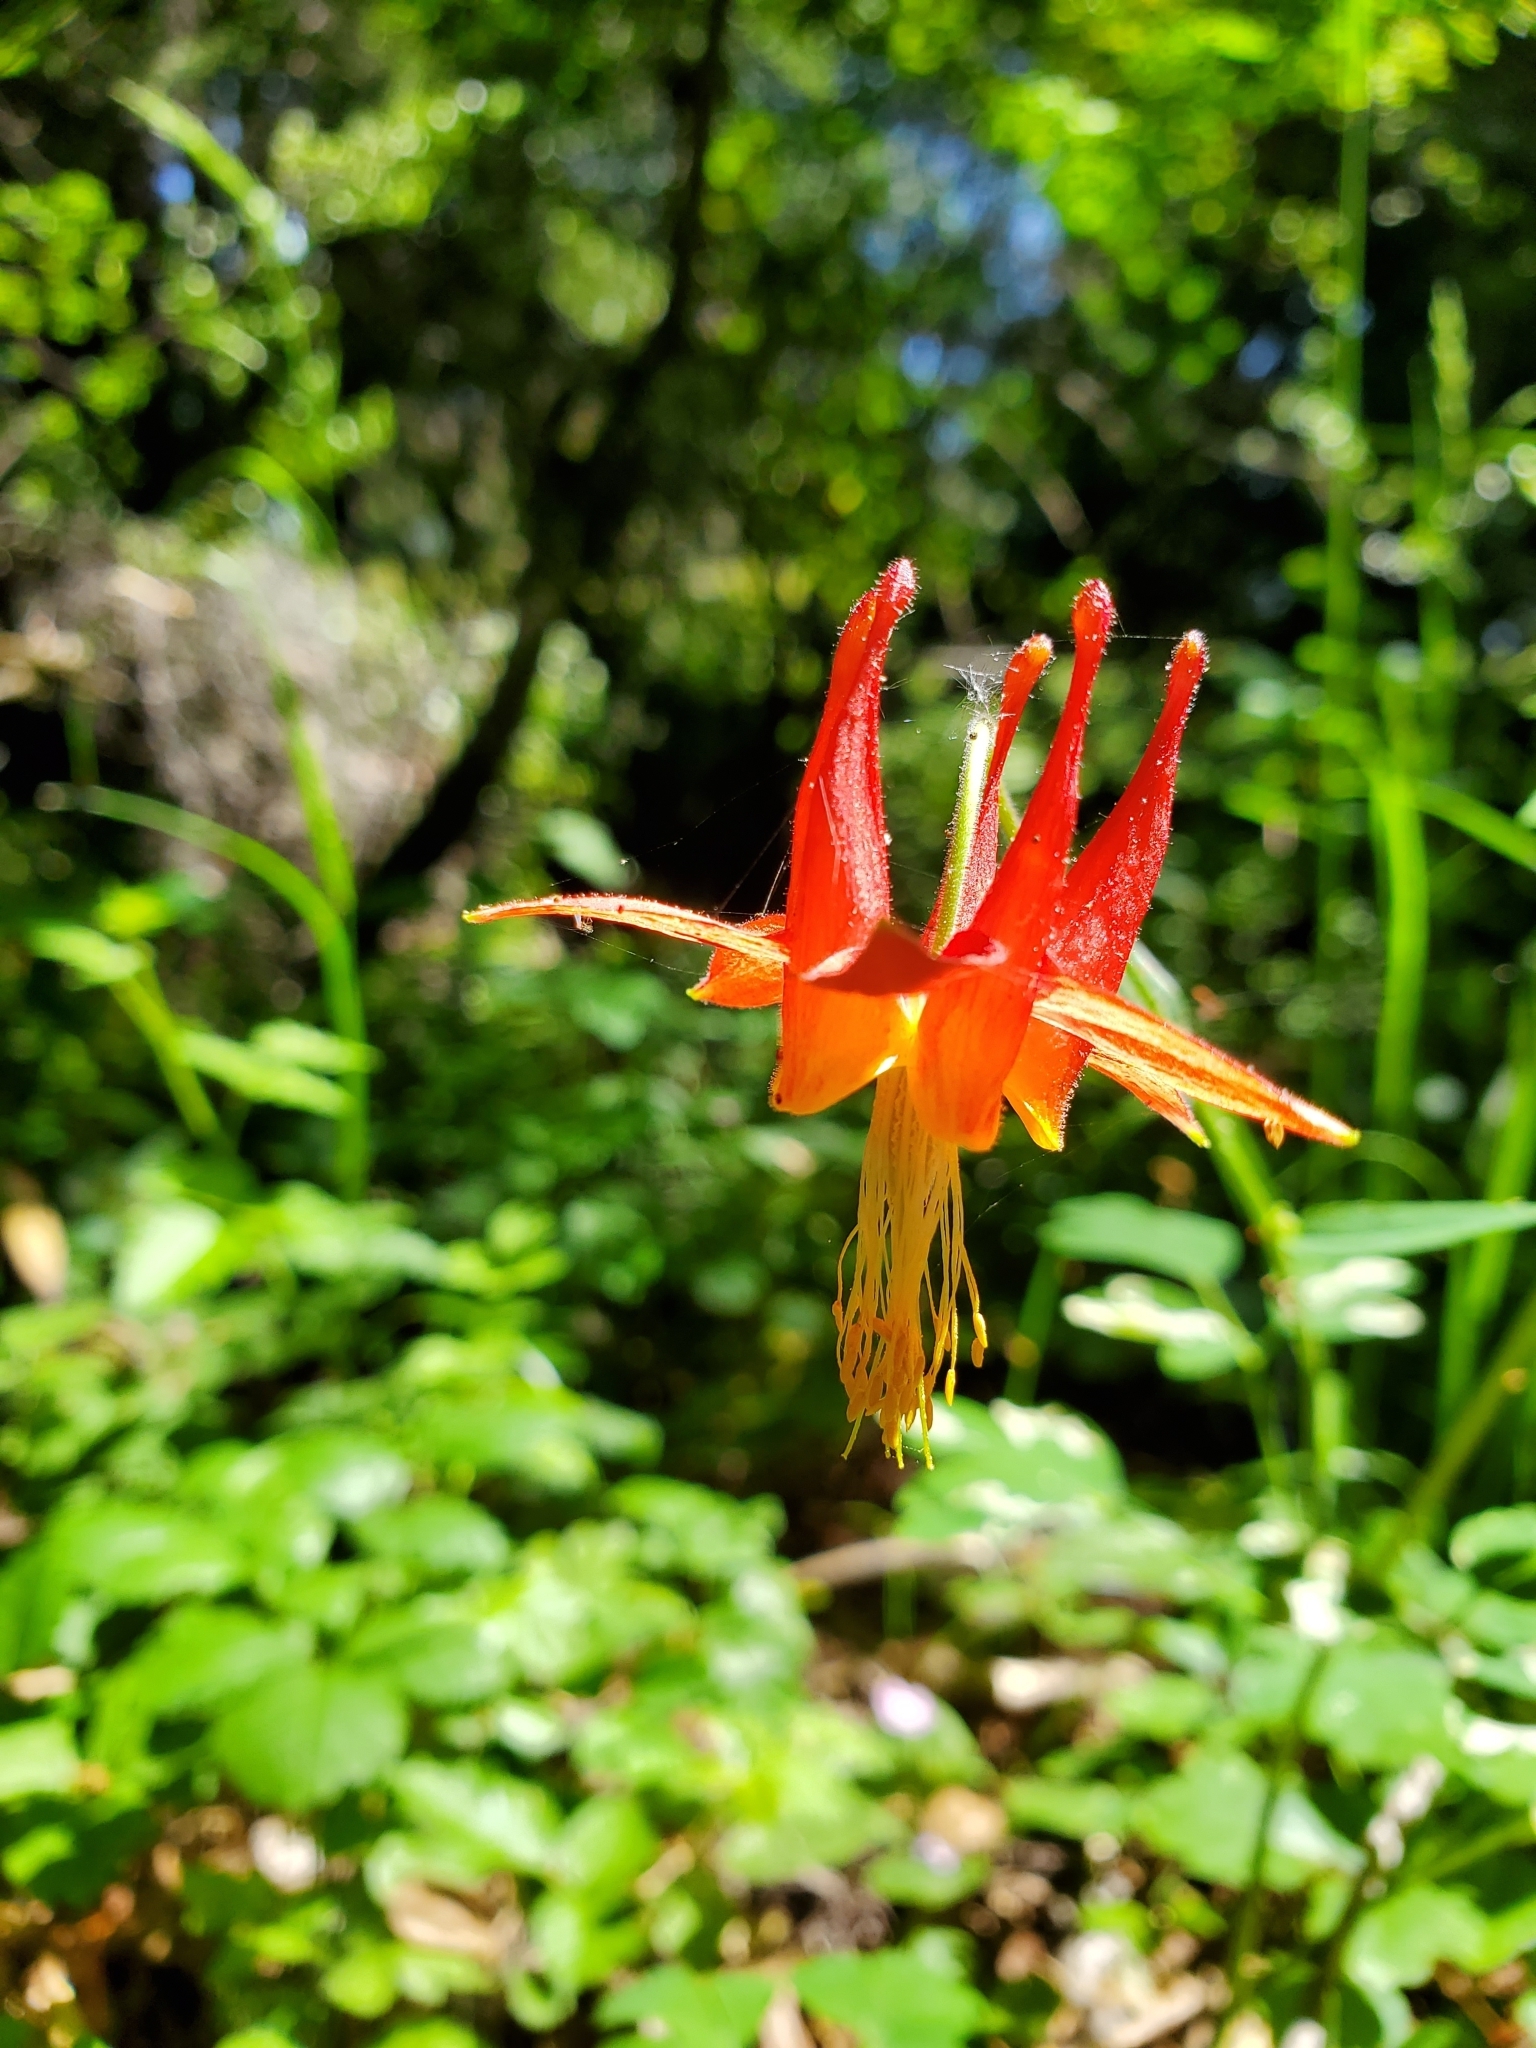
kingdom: Plantae
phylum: Tracheophyta
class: Magnoliopsida
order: Ranunculales
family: Ranunculaceae
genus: Aquilegia
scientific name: Aquilegia formosa
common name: Sitka columbine
